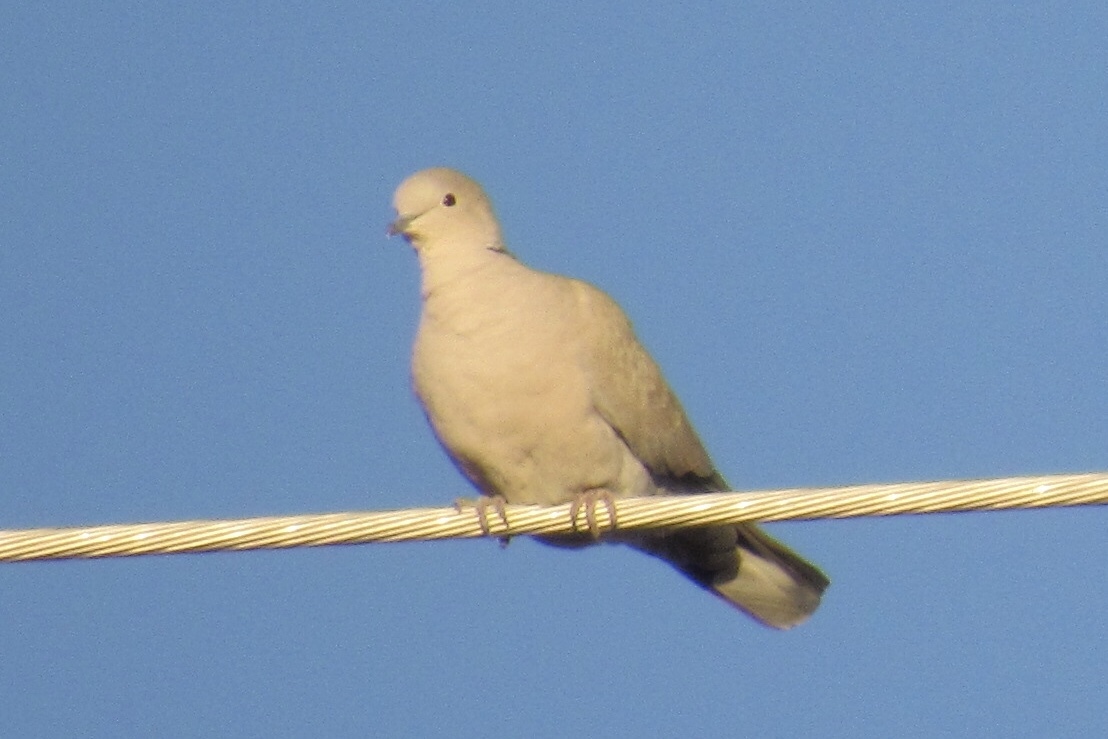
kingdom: Animalia
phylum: Chordata
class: Aves
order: Columbiformes
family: Columbidae
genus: Streptopelia
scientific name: Streptopelia decaocto
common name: Eurasian collared dove
